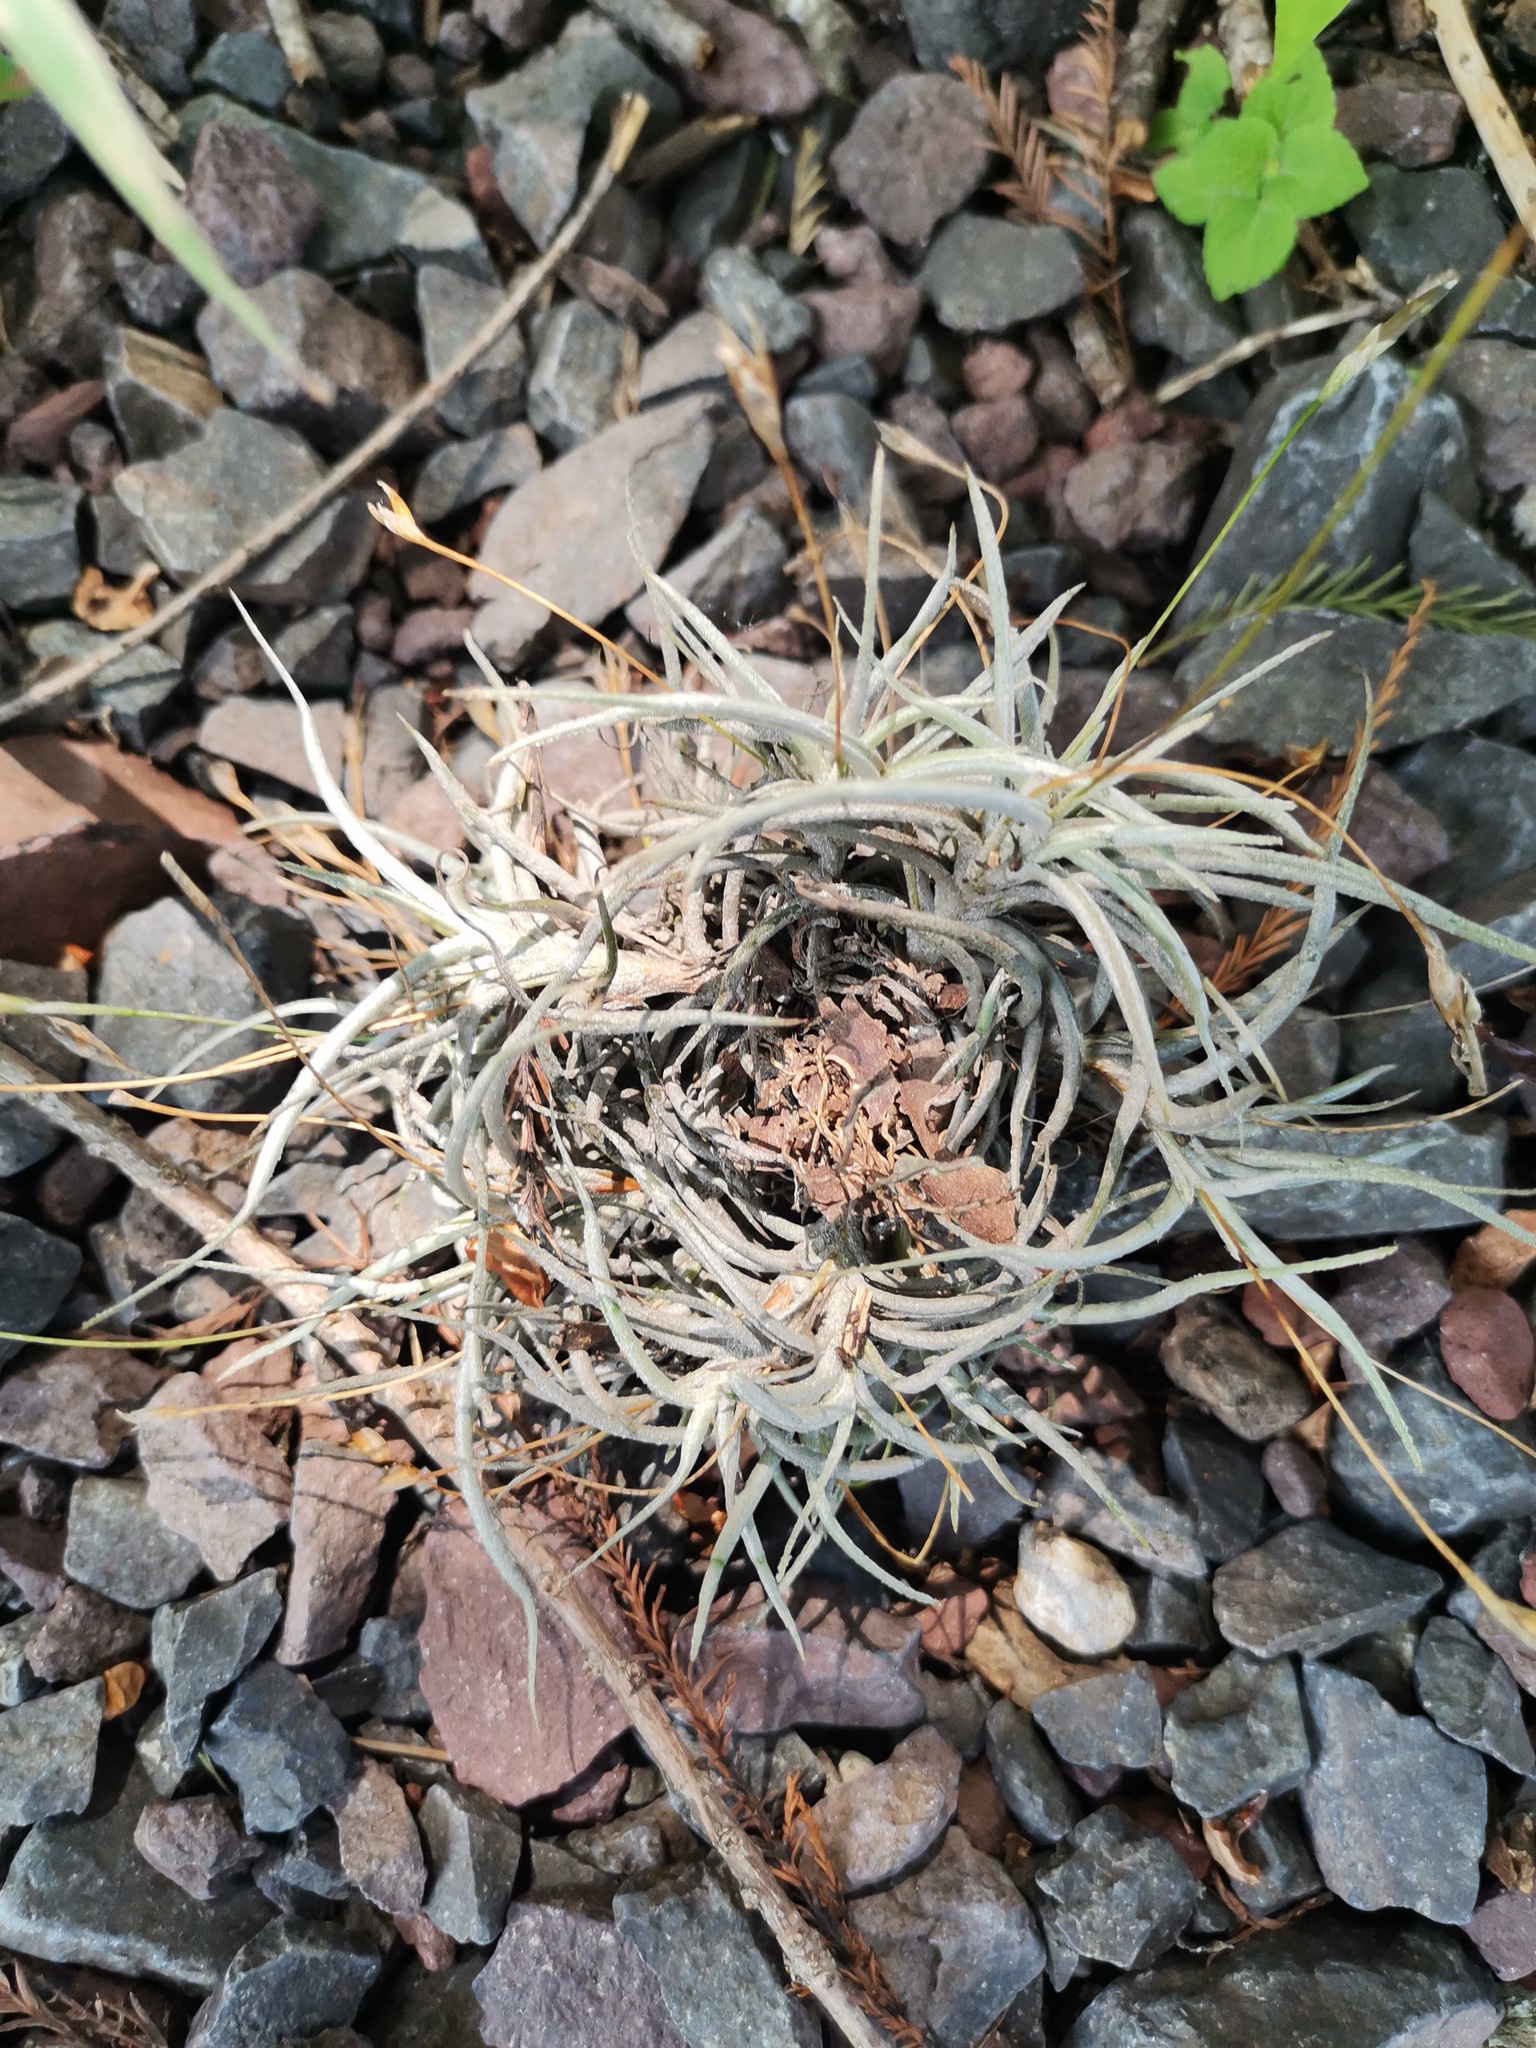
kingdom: Plantae
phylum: Tracheophyta
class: Liliopsida
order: Poales
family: Bromeliaceae
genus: Tillandsia
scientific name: Tillandsia recurvata
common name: Small ballmoss
